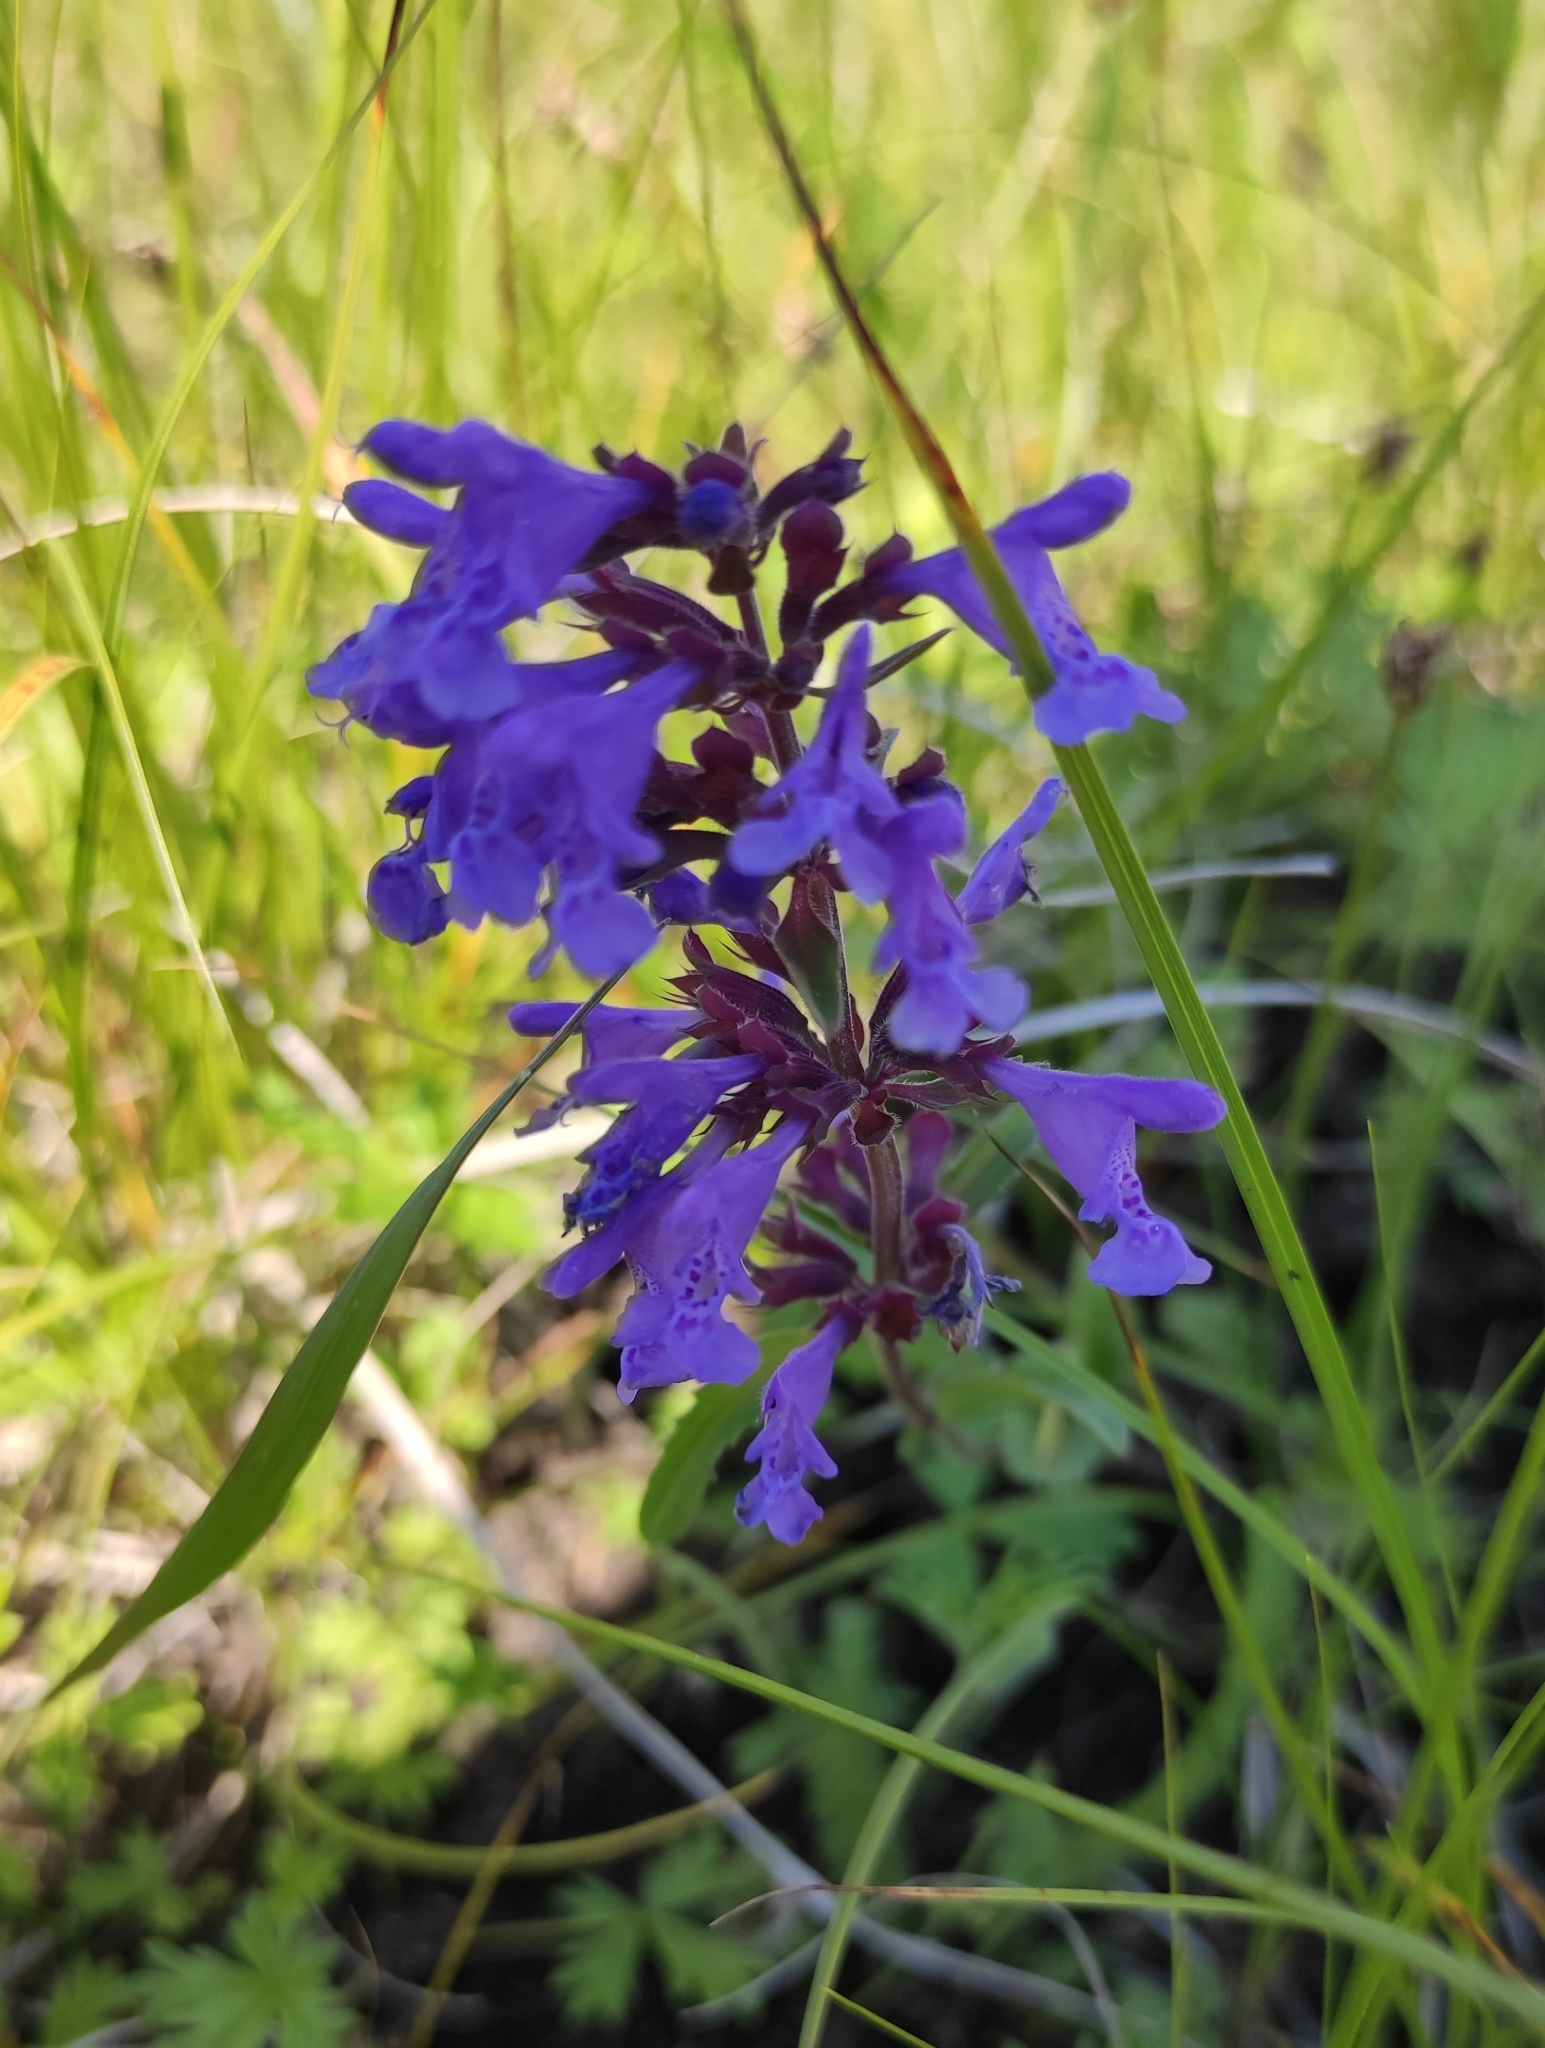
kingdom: Plantae
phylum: Tracheophyta
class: Magnoliopsida
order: Lamiales
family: Lamiaceae
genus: Dracocephalum
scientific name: Dracocephalum nutans
